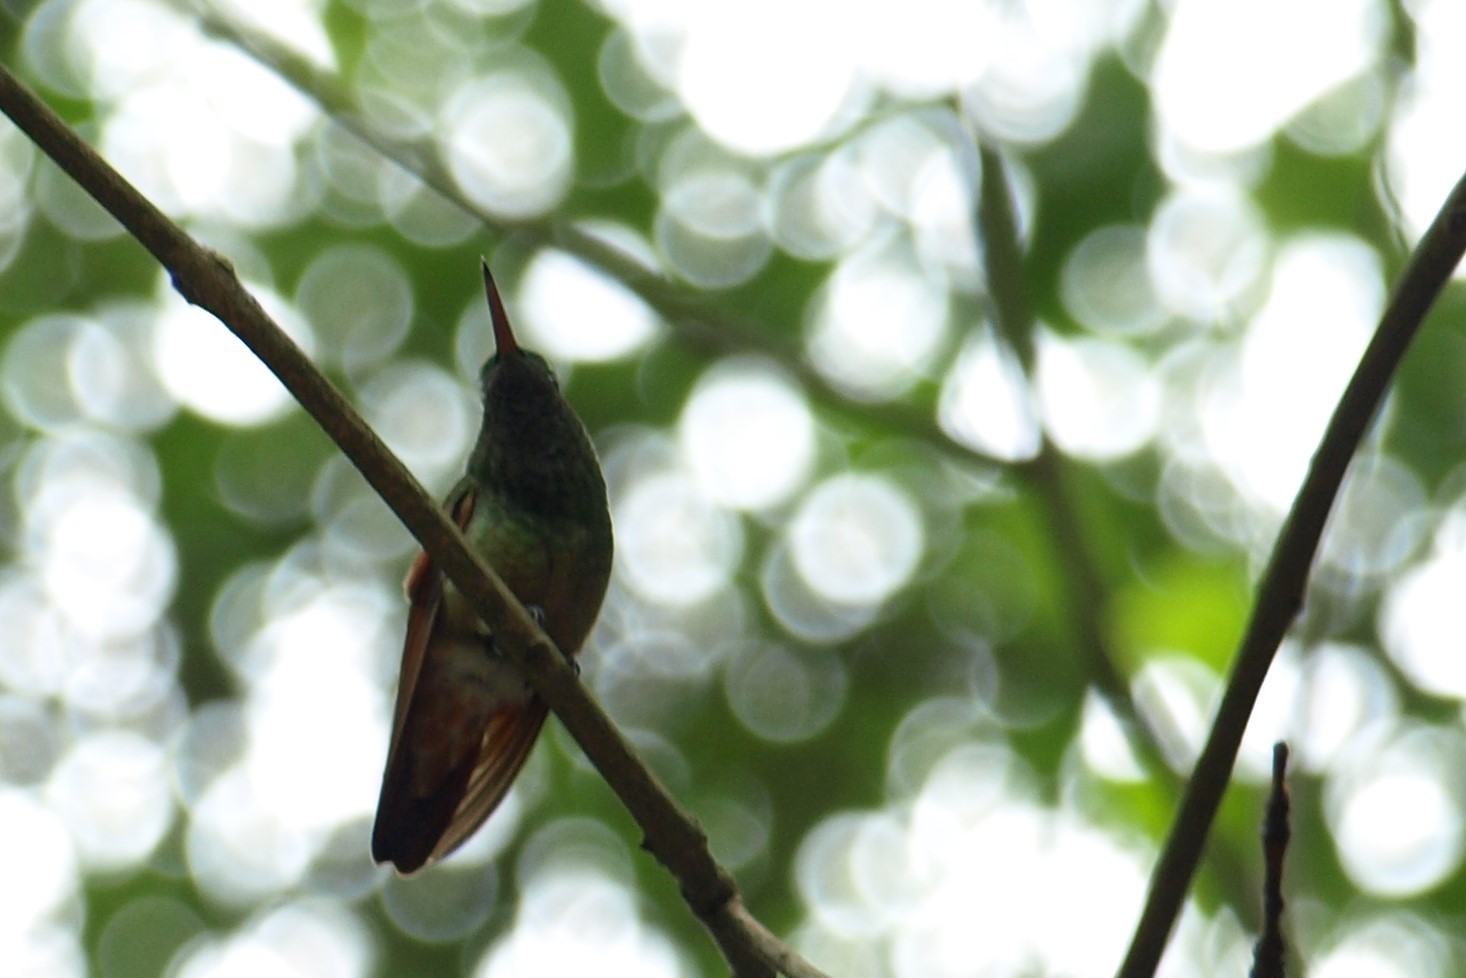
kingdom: Animalia
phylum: Chordata
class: Aves
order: Apodiformes
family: Trochilidae
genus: Saucerottia
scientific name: Saucerottia beryllina
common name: Berylline hummingbird
